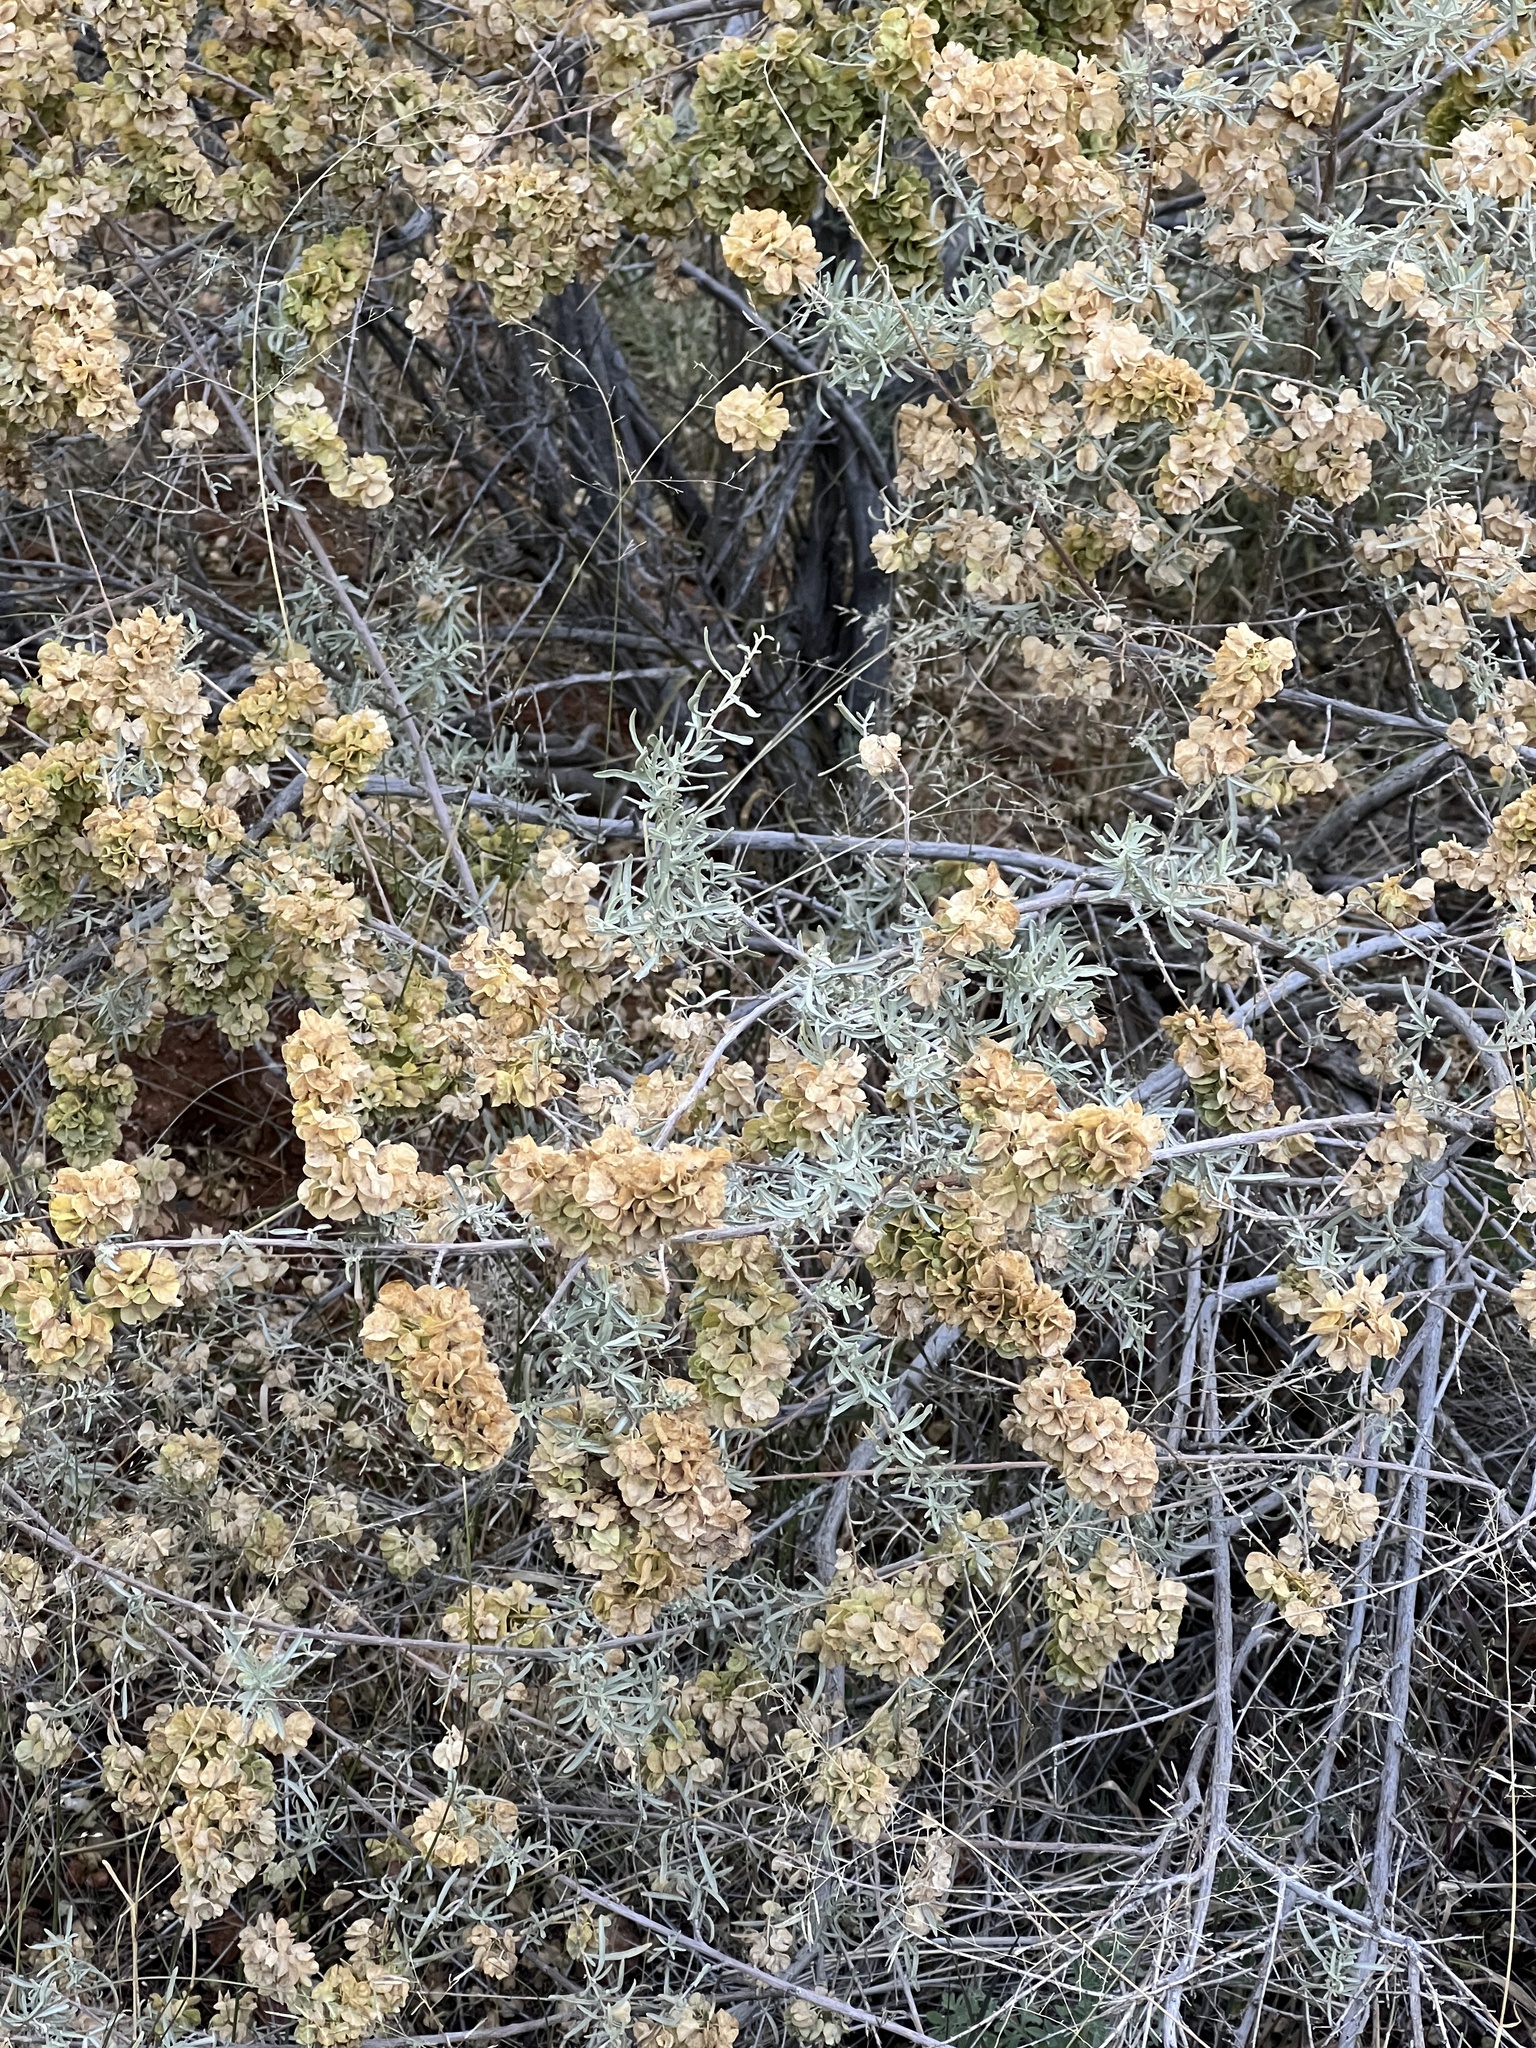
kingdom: Plantae
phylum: Tracheophyta
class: Magnoliopsida
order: Caryophyllales
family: Amaranthaceae
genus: Atriplex
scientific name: Atriplex canescens
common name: Four-wing saltbush
